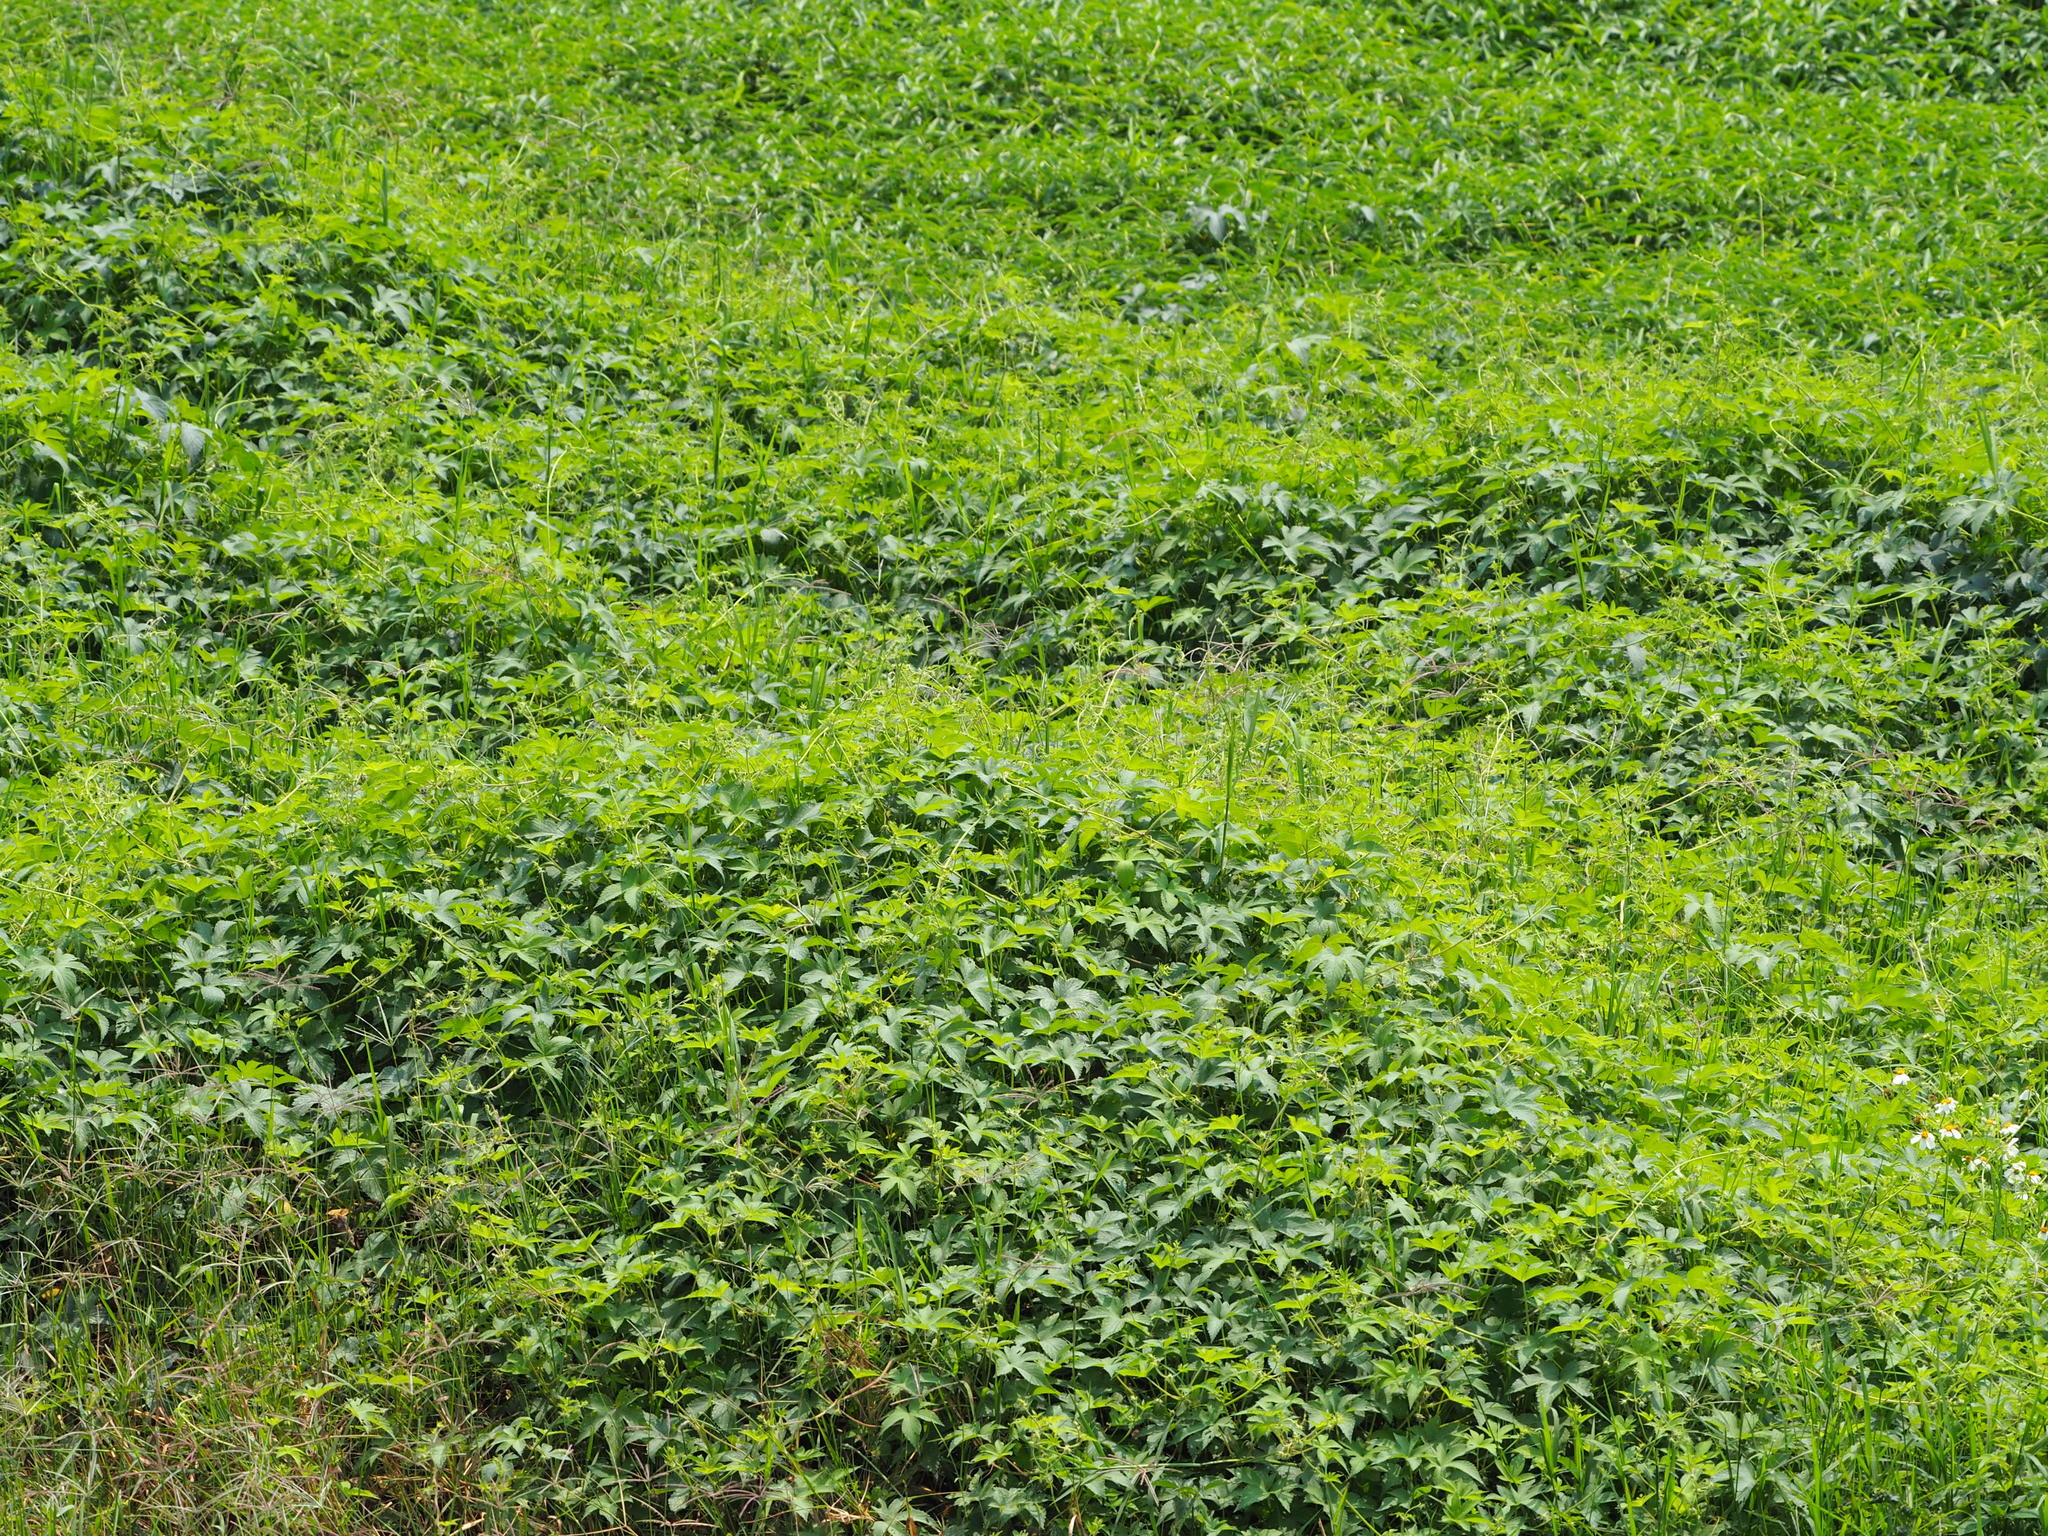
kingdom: Plantae
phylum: Tracheophyta
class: Magnoliopsida
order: Rosales
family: Cannabaceae
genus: Humulus
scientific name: Humulus scandens
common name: Japanese hop
